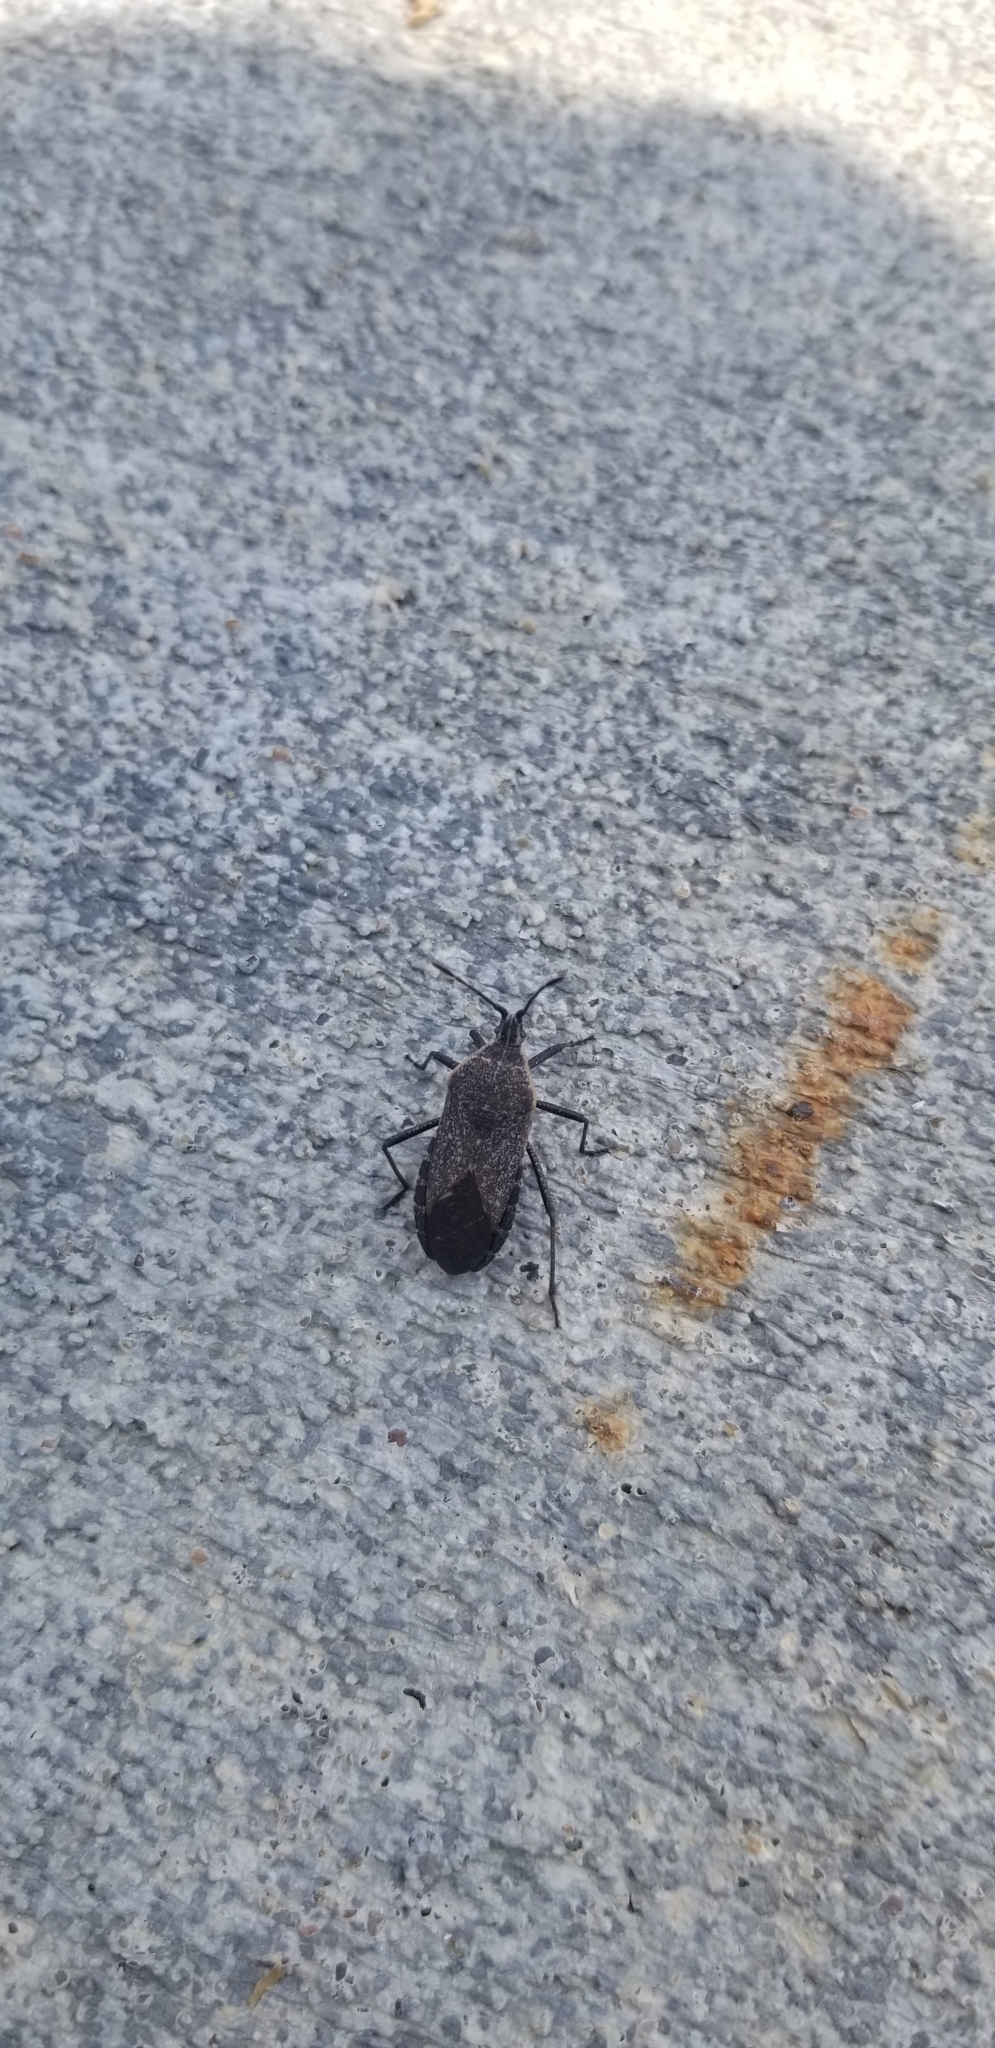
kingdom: Animalia
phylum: Arthropoda
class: Insecta
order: Hemiptera
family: Coreidae
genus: Anasa
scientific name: Anasa tristis
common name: Squash bug
